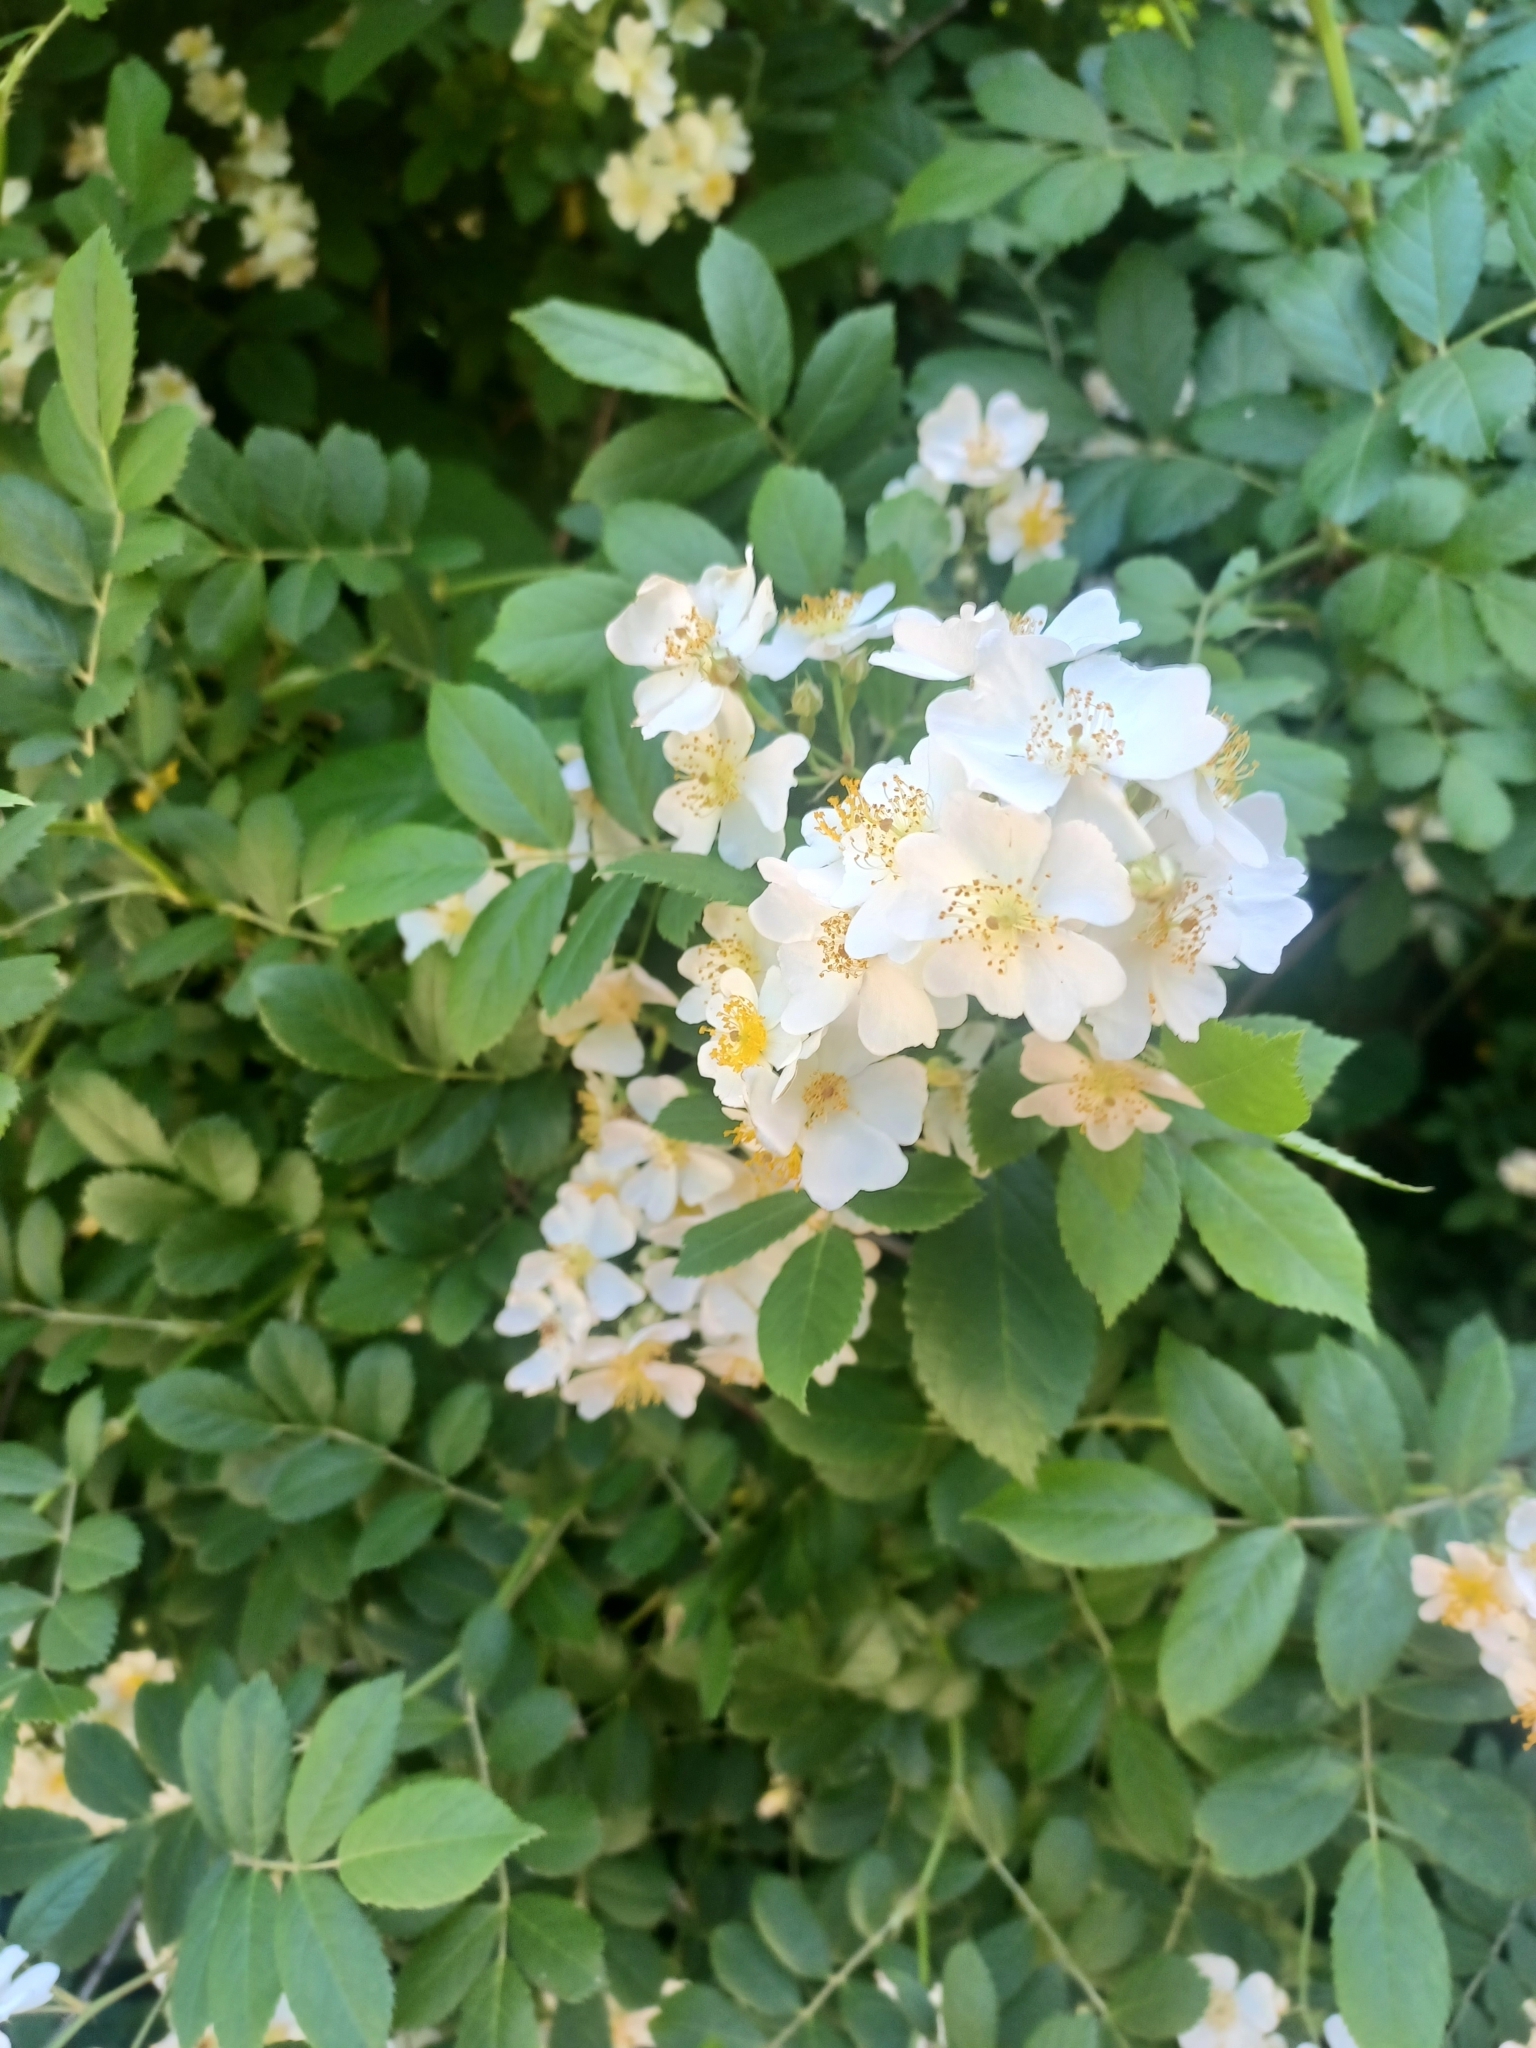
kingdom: Plantae
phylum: Tracheophyta
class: Magnoliopsida
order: Rosales
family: Rosaceae
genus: Rosa
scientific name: Rosa multiflora
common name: Multiflora rose
